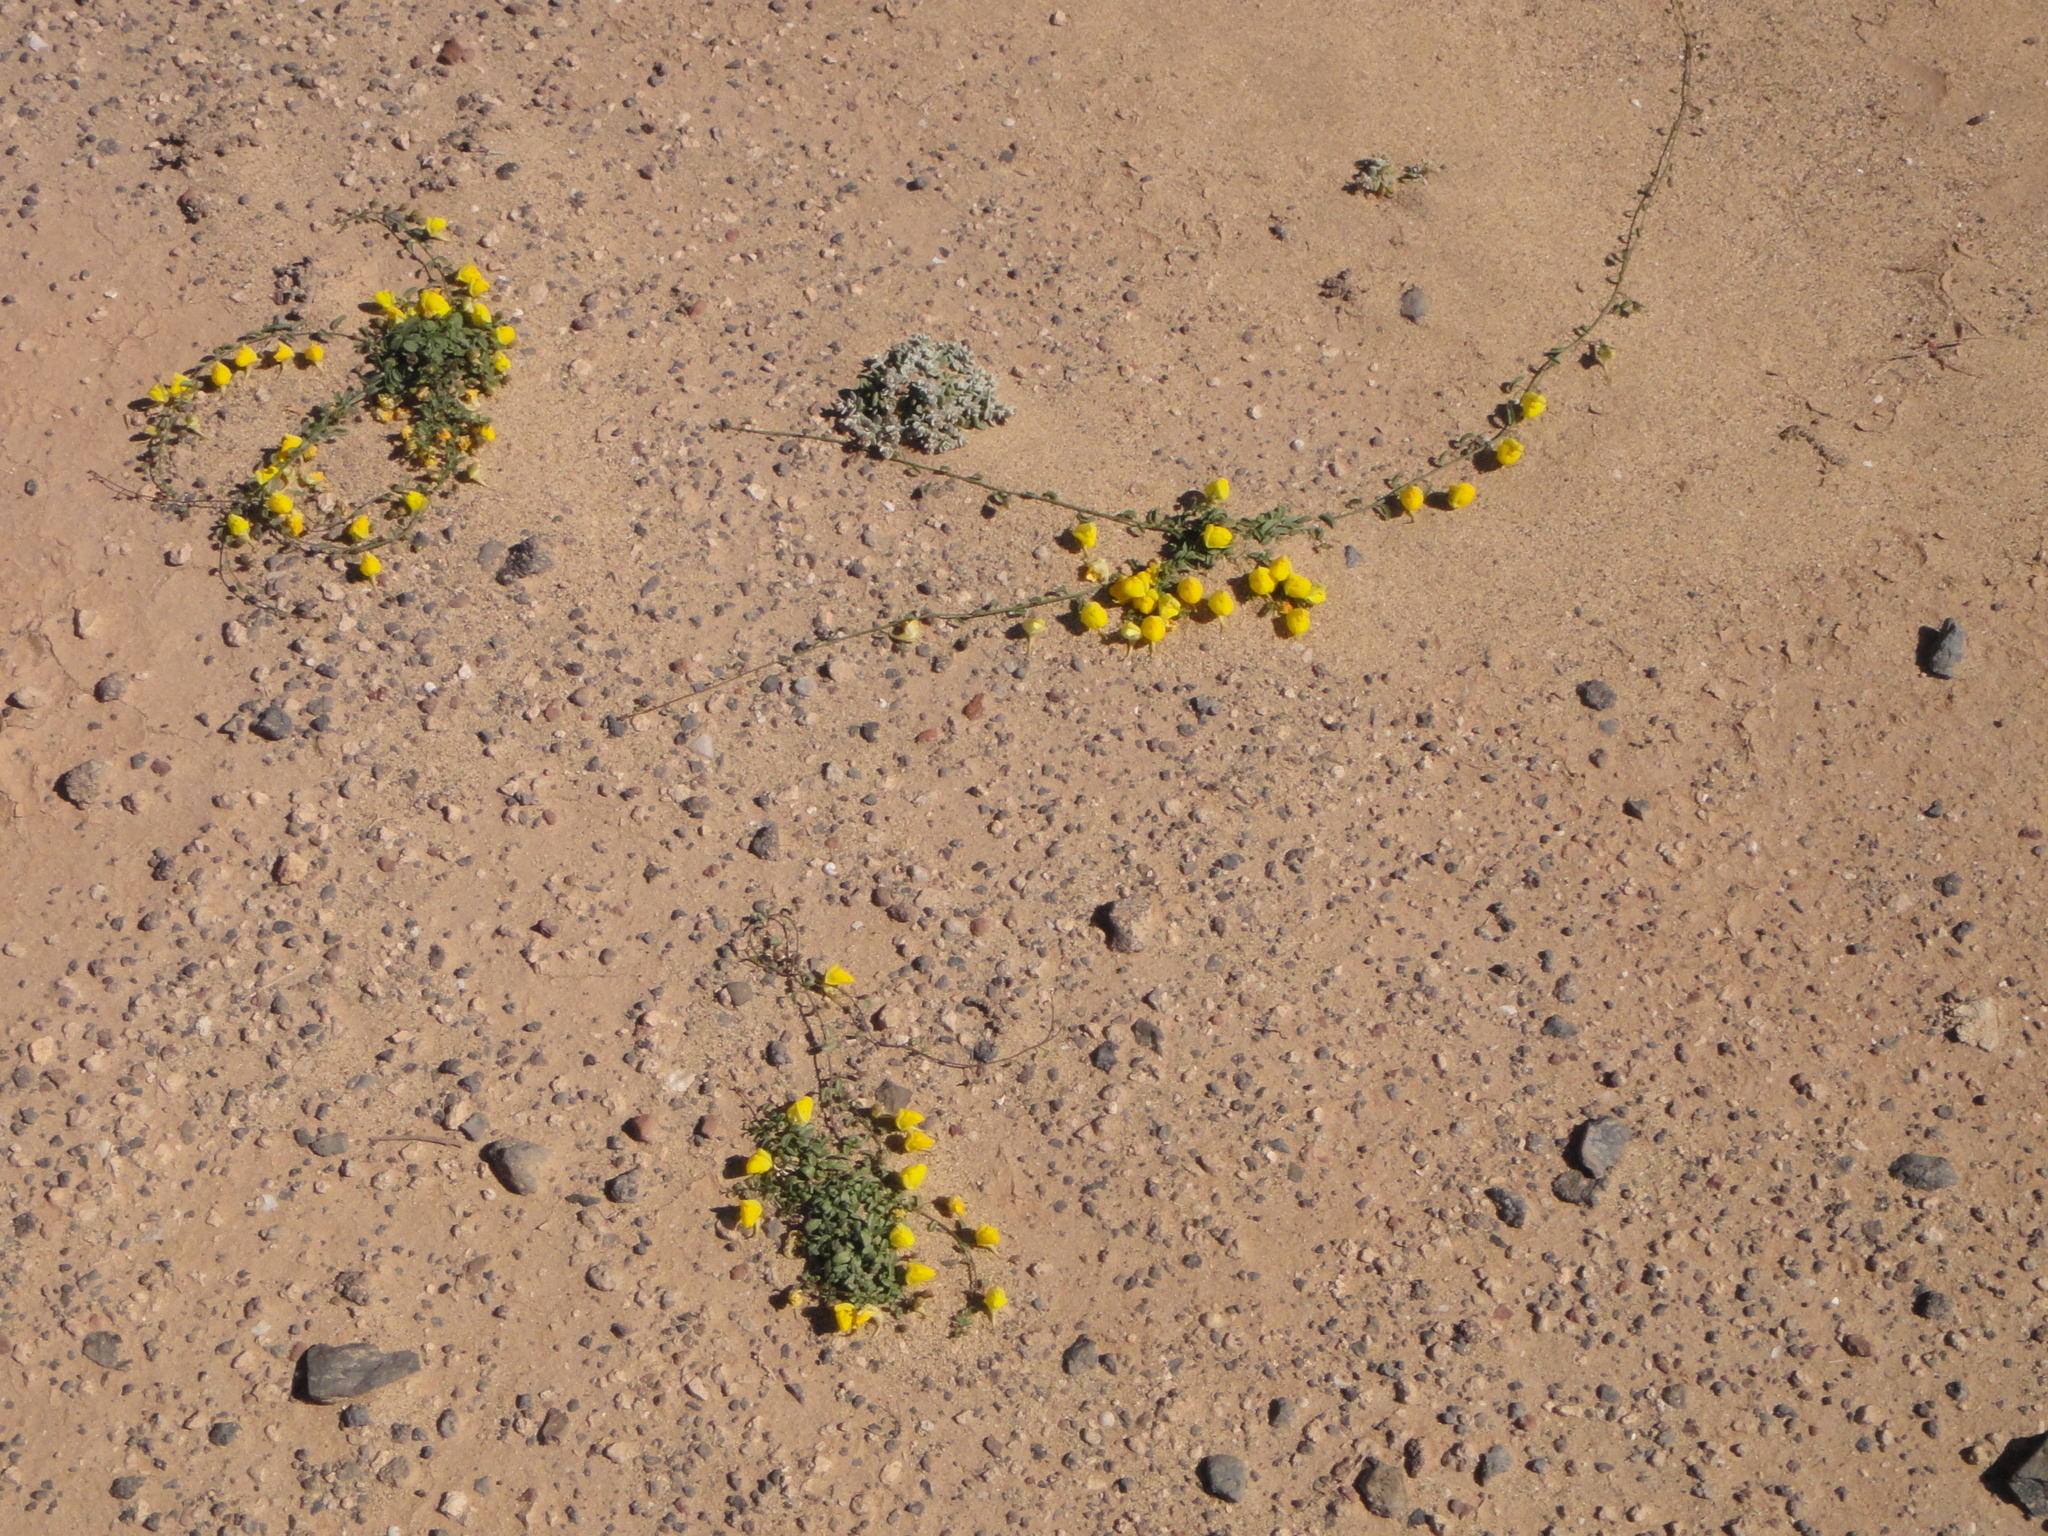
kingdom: Plantae
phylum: Tracheophyta
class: Magnoliopsida
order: Lamiales
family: Plantaginaceae
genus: Nanorrhinum
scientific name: Nanorrhinum heterophyllum
